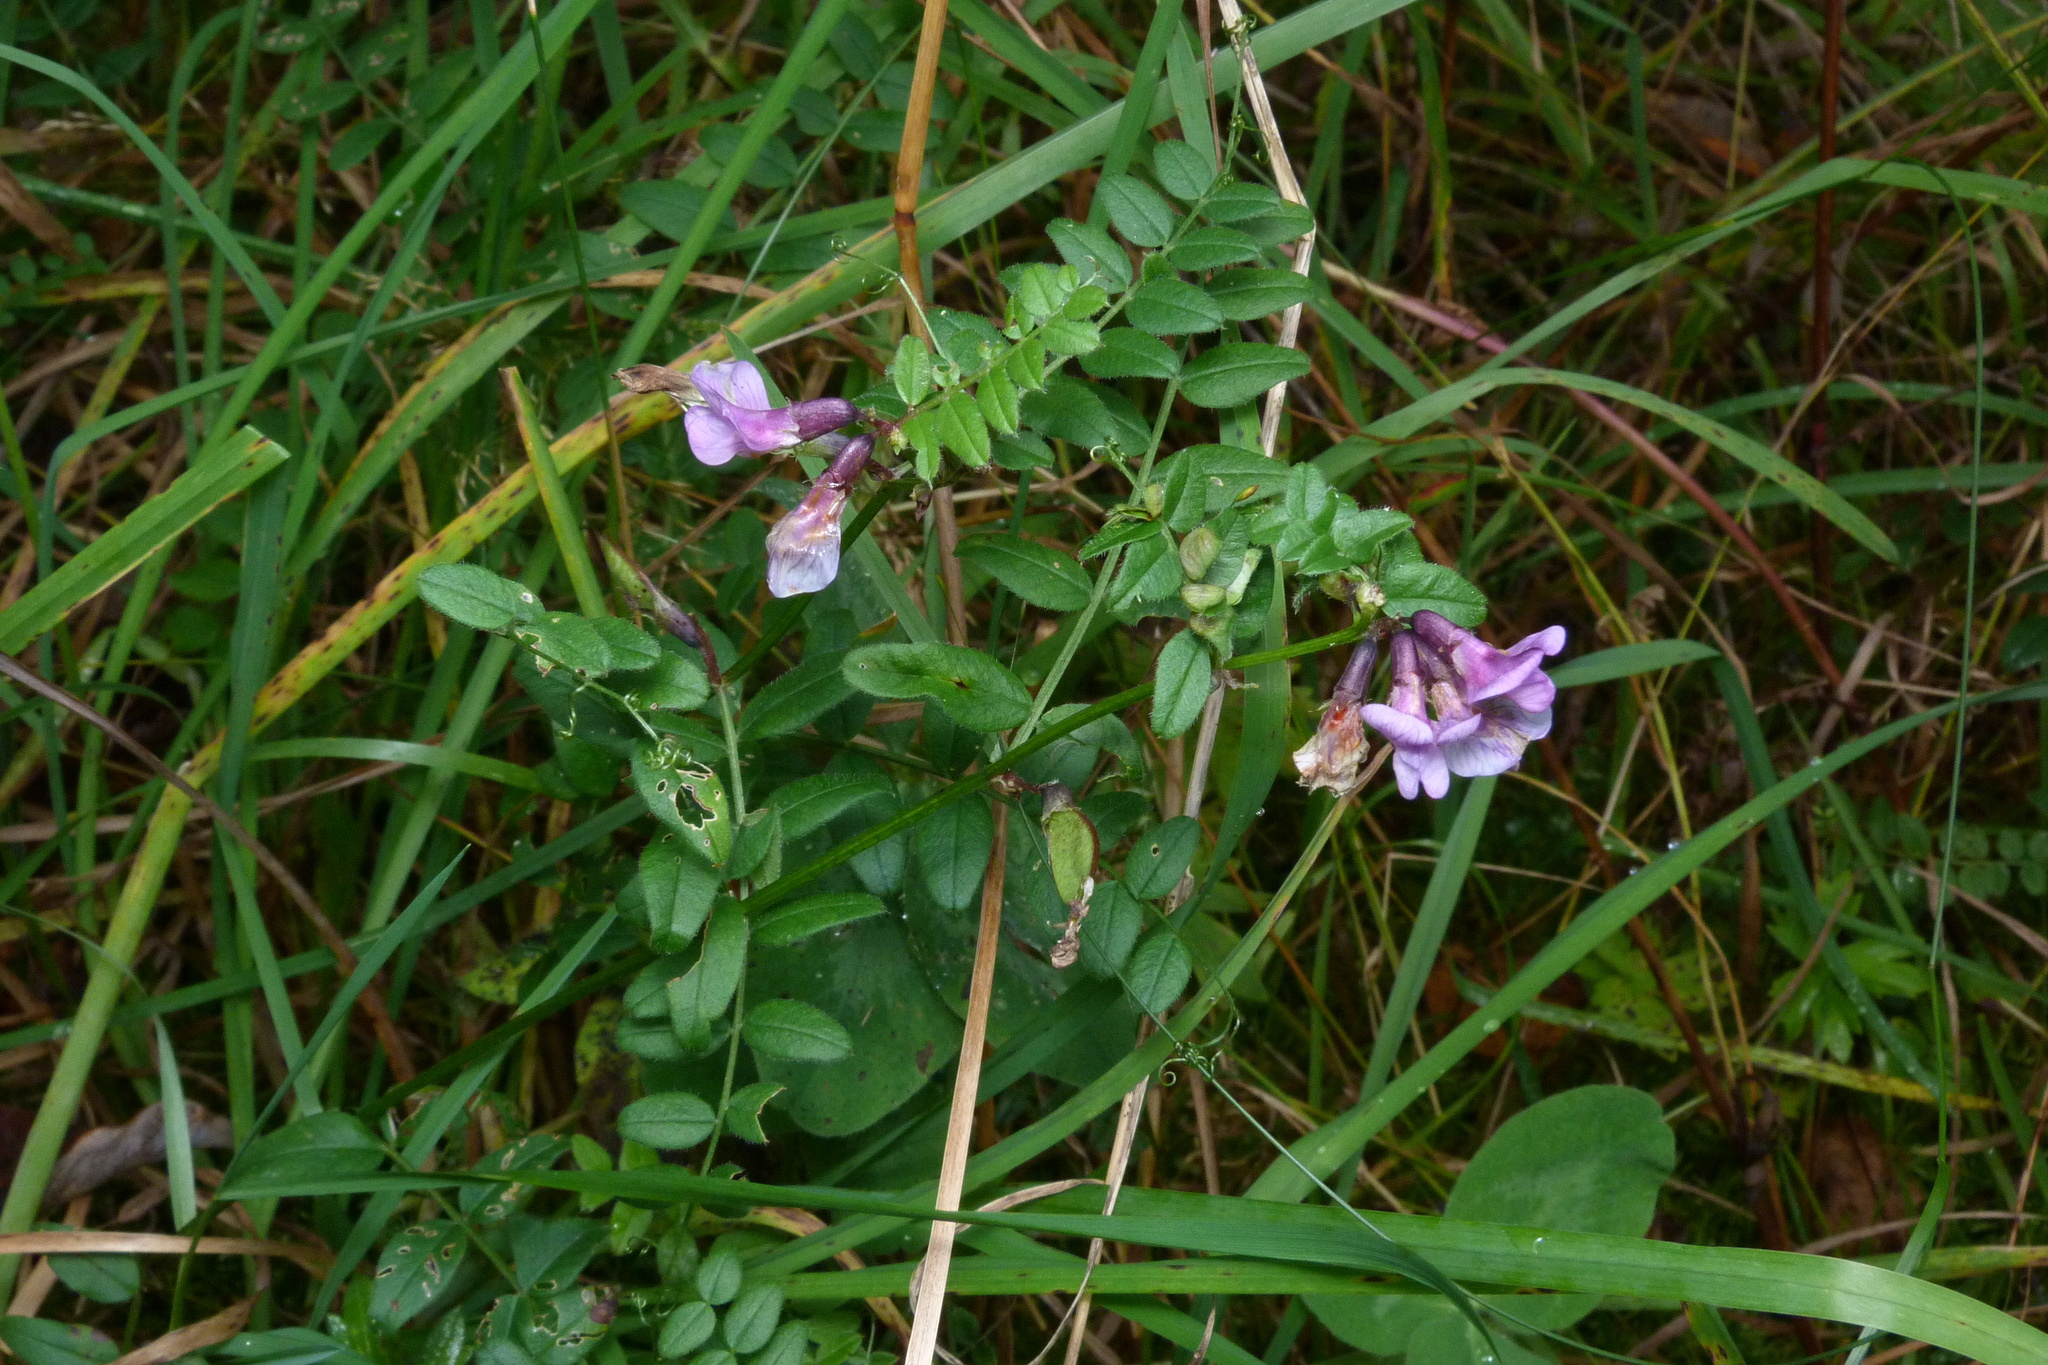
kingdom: Plantae
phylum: Tracheophyta
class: Magnoliopsida
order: Fabales
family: Fabaceae
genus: Vicia
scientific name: Vicia sepium
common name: Bush vetch
